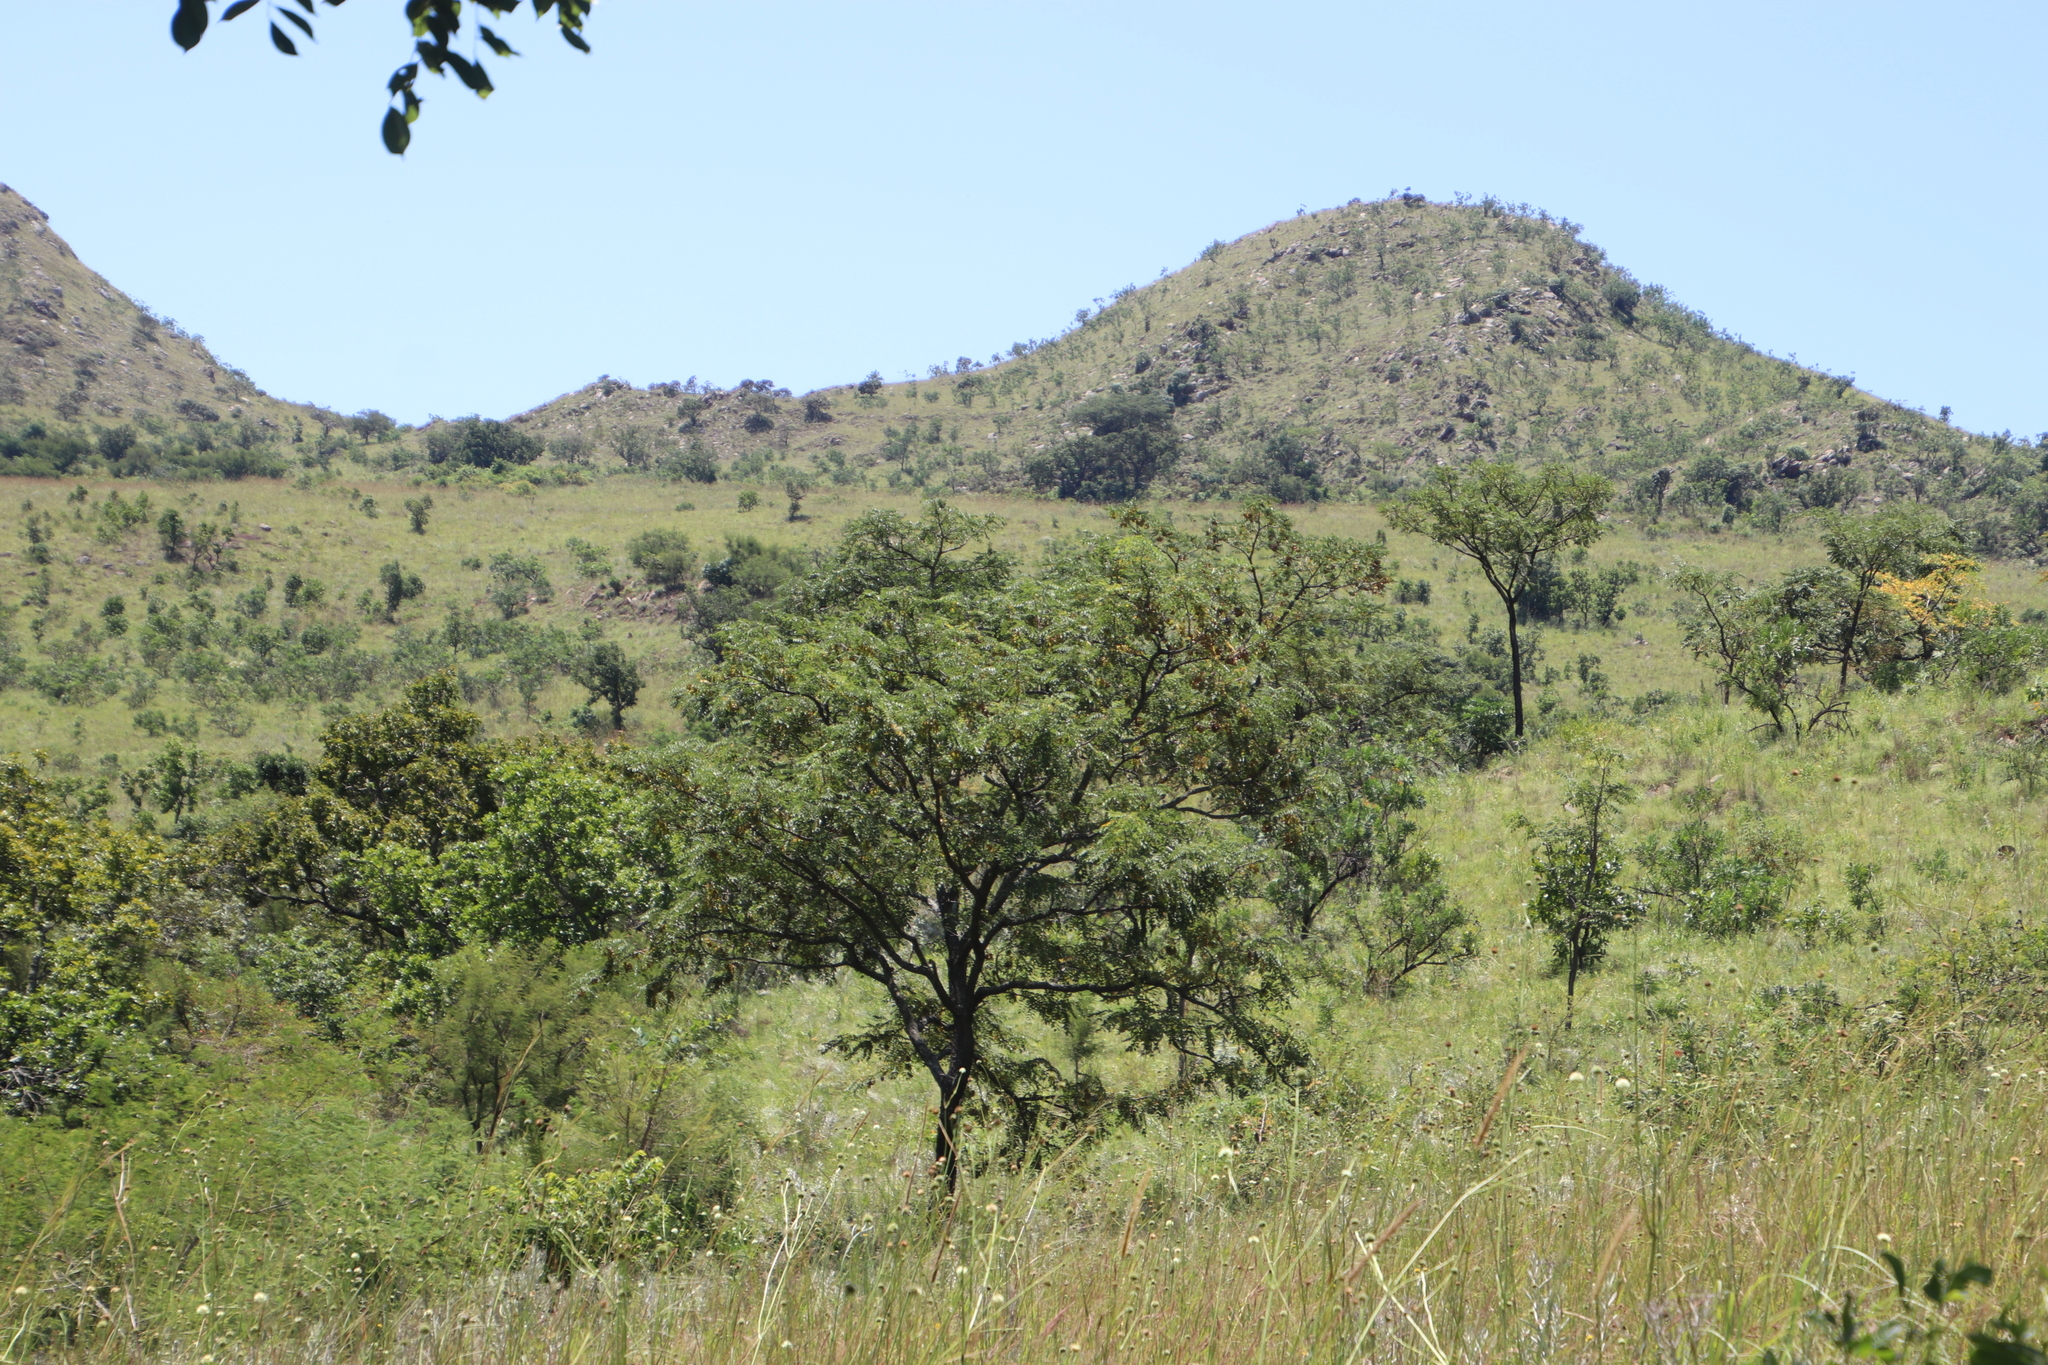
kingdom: Plantae
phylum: Tracheophyta
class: Magnoliopsida
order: Fabales
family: Fabaceae
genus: Pterocarpus
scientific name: Pterocarpus angolensis
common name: Bloodwood tree
